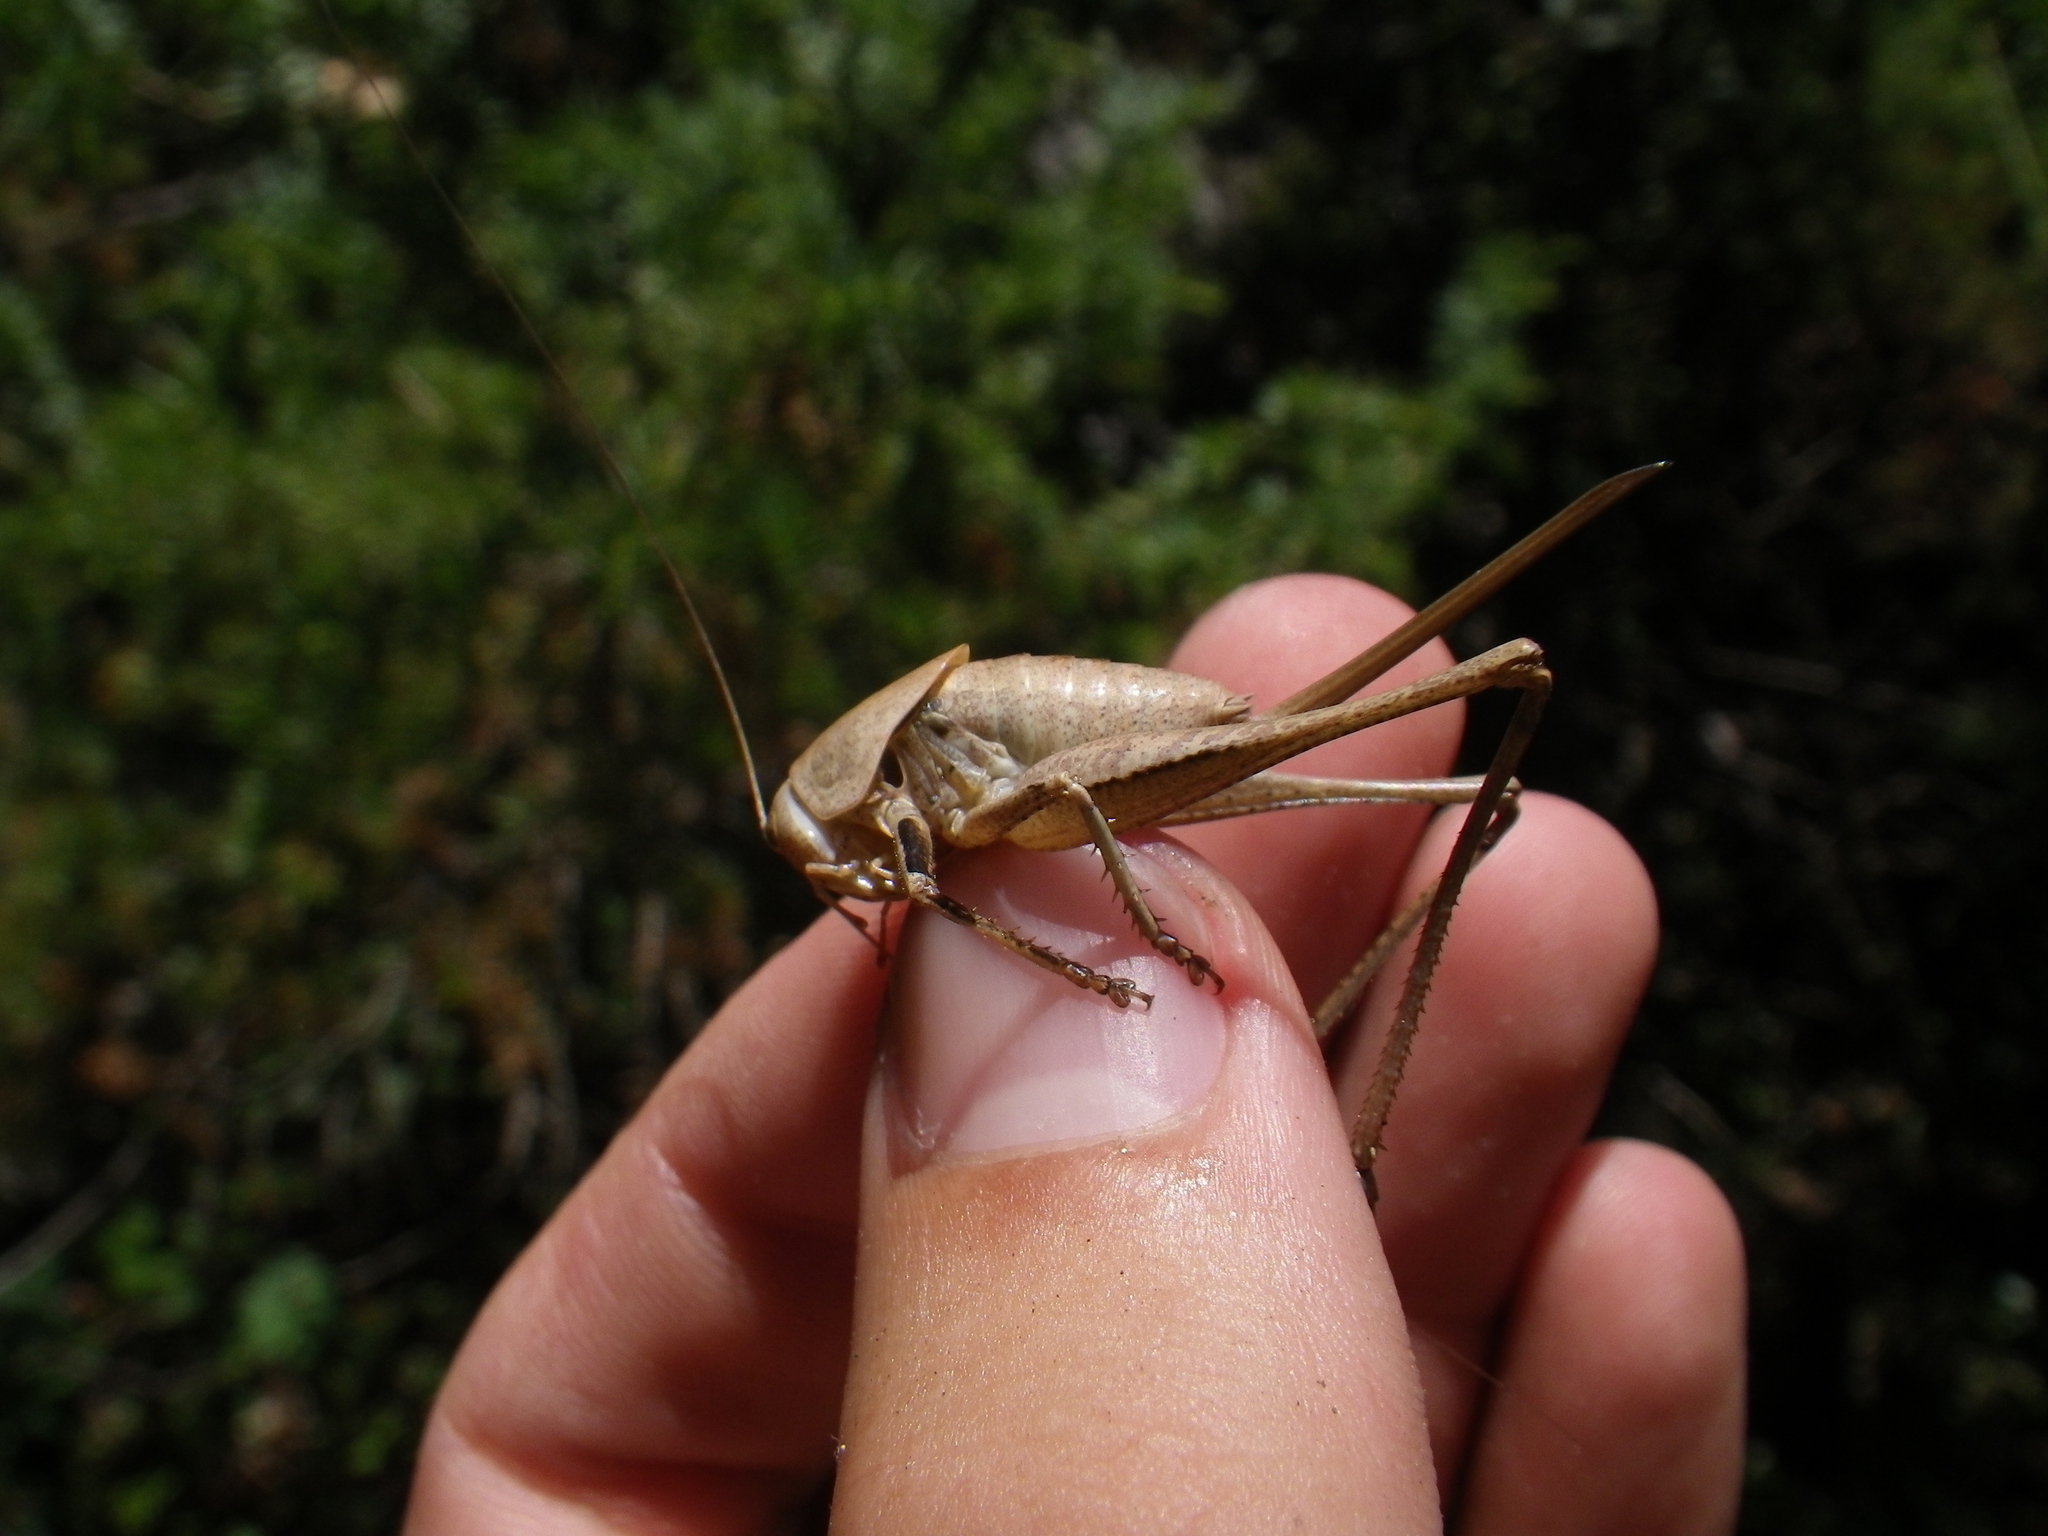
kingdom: Animalia
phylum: Arthropoda
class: Insecta
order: Orthoptera
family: Tettigoniidae
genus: Thyreonotus
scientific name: Thyreonotus corsicus
